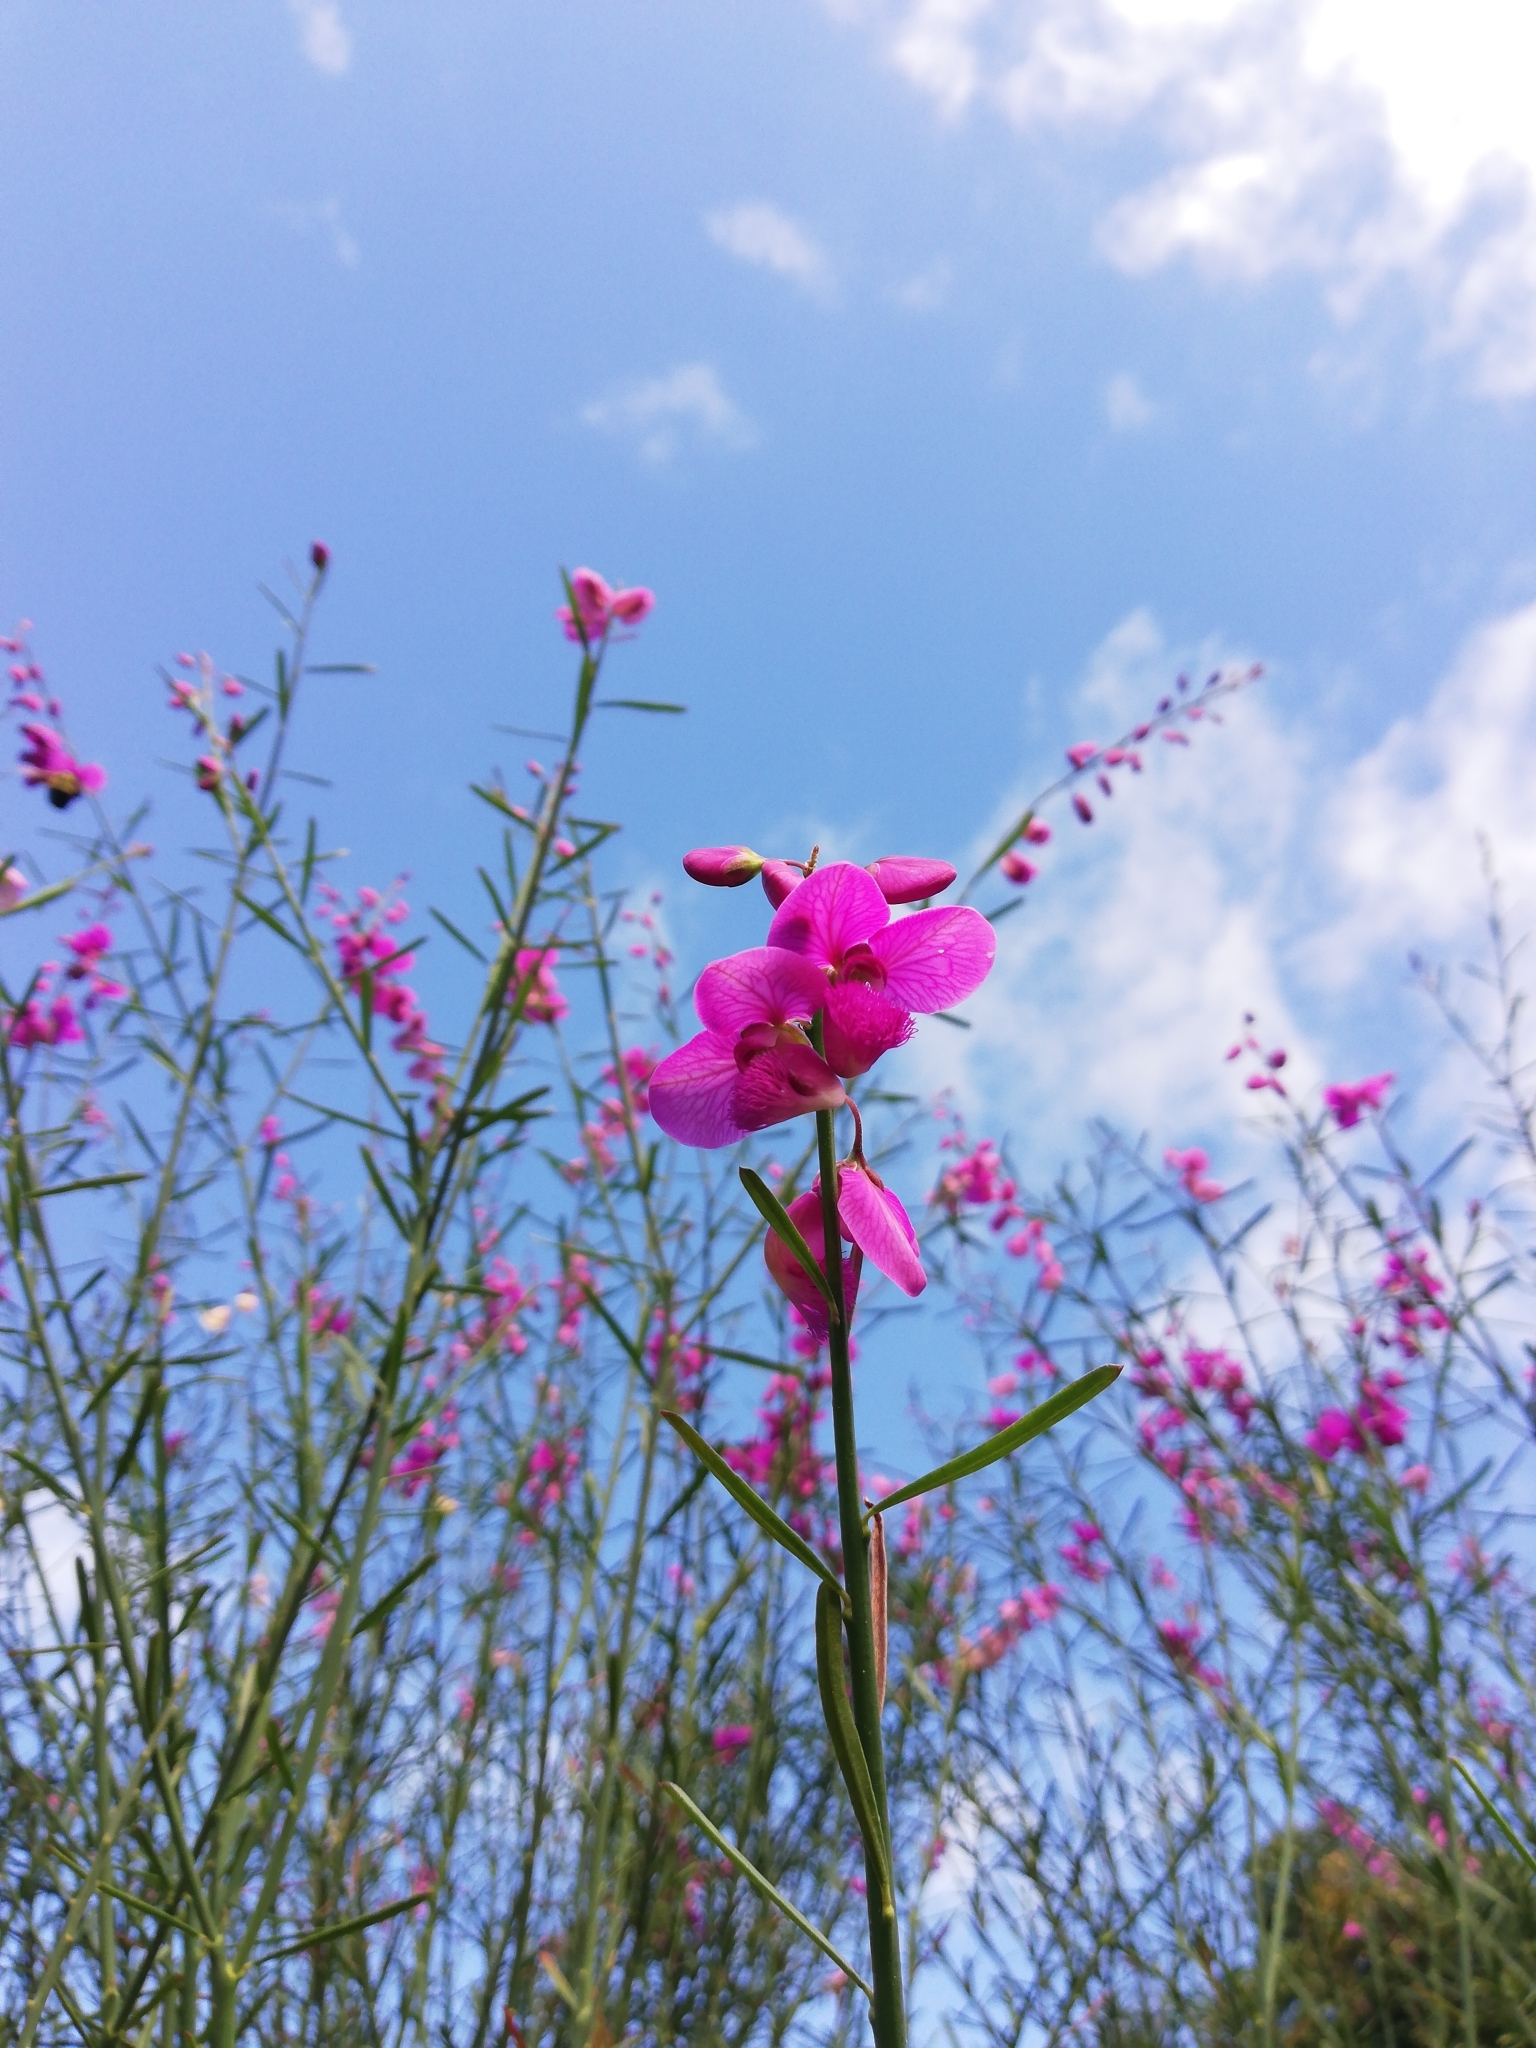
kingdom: Plantae
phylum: Tracheophyta
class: Magnoliopsida
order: Fabales
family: Polygalaceae
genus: Polygala
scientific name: Polygala virgata
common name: Milkwort
